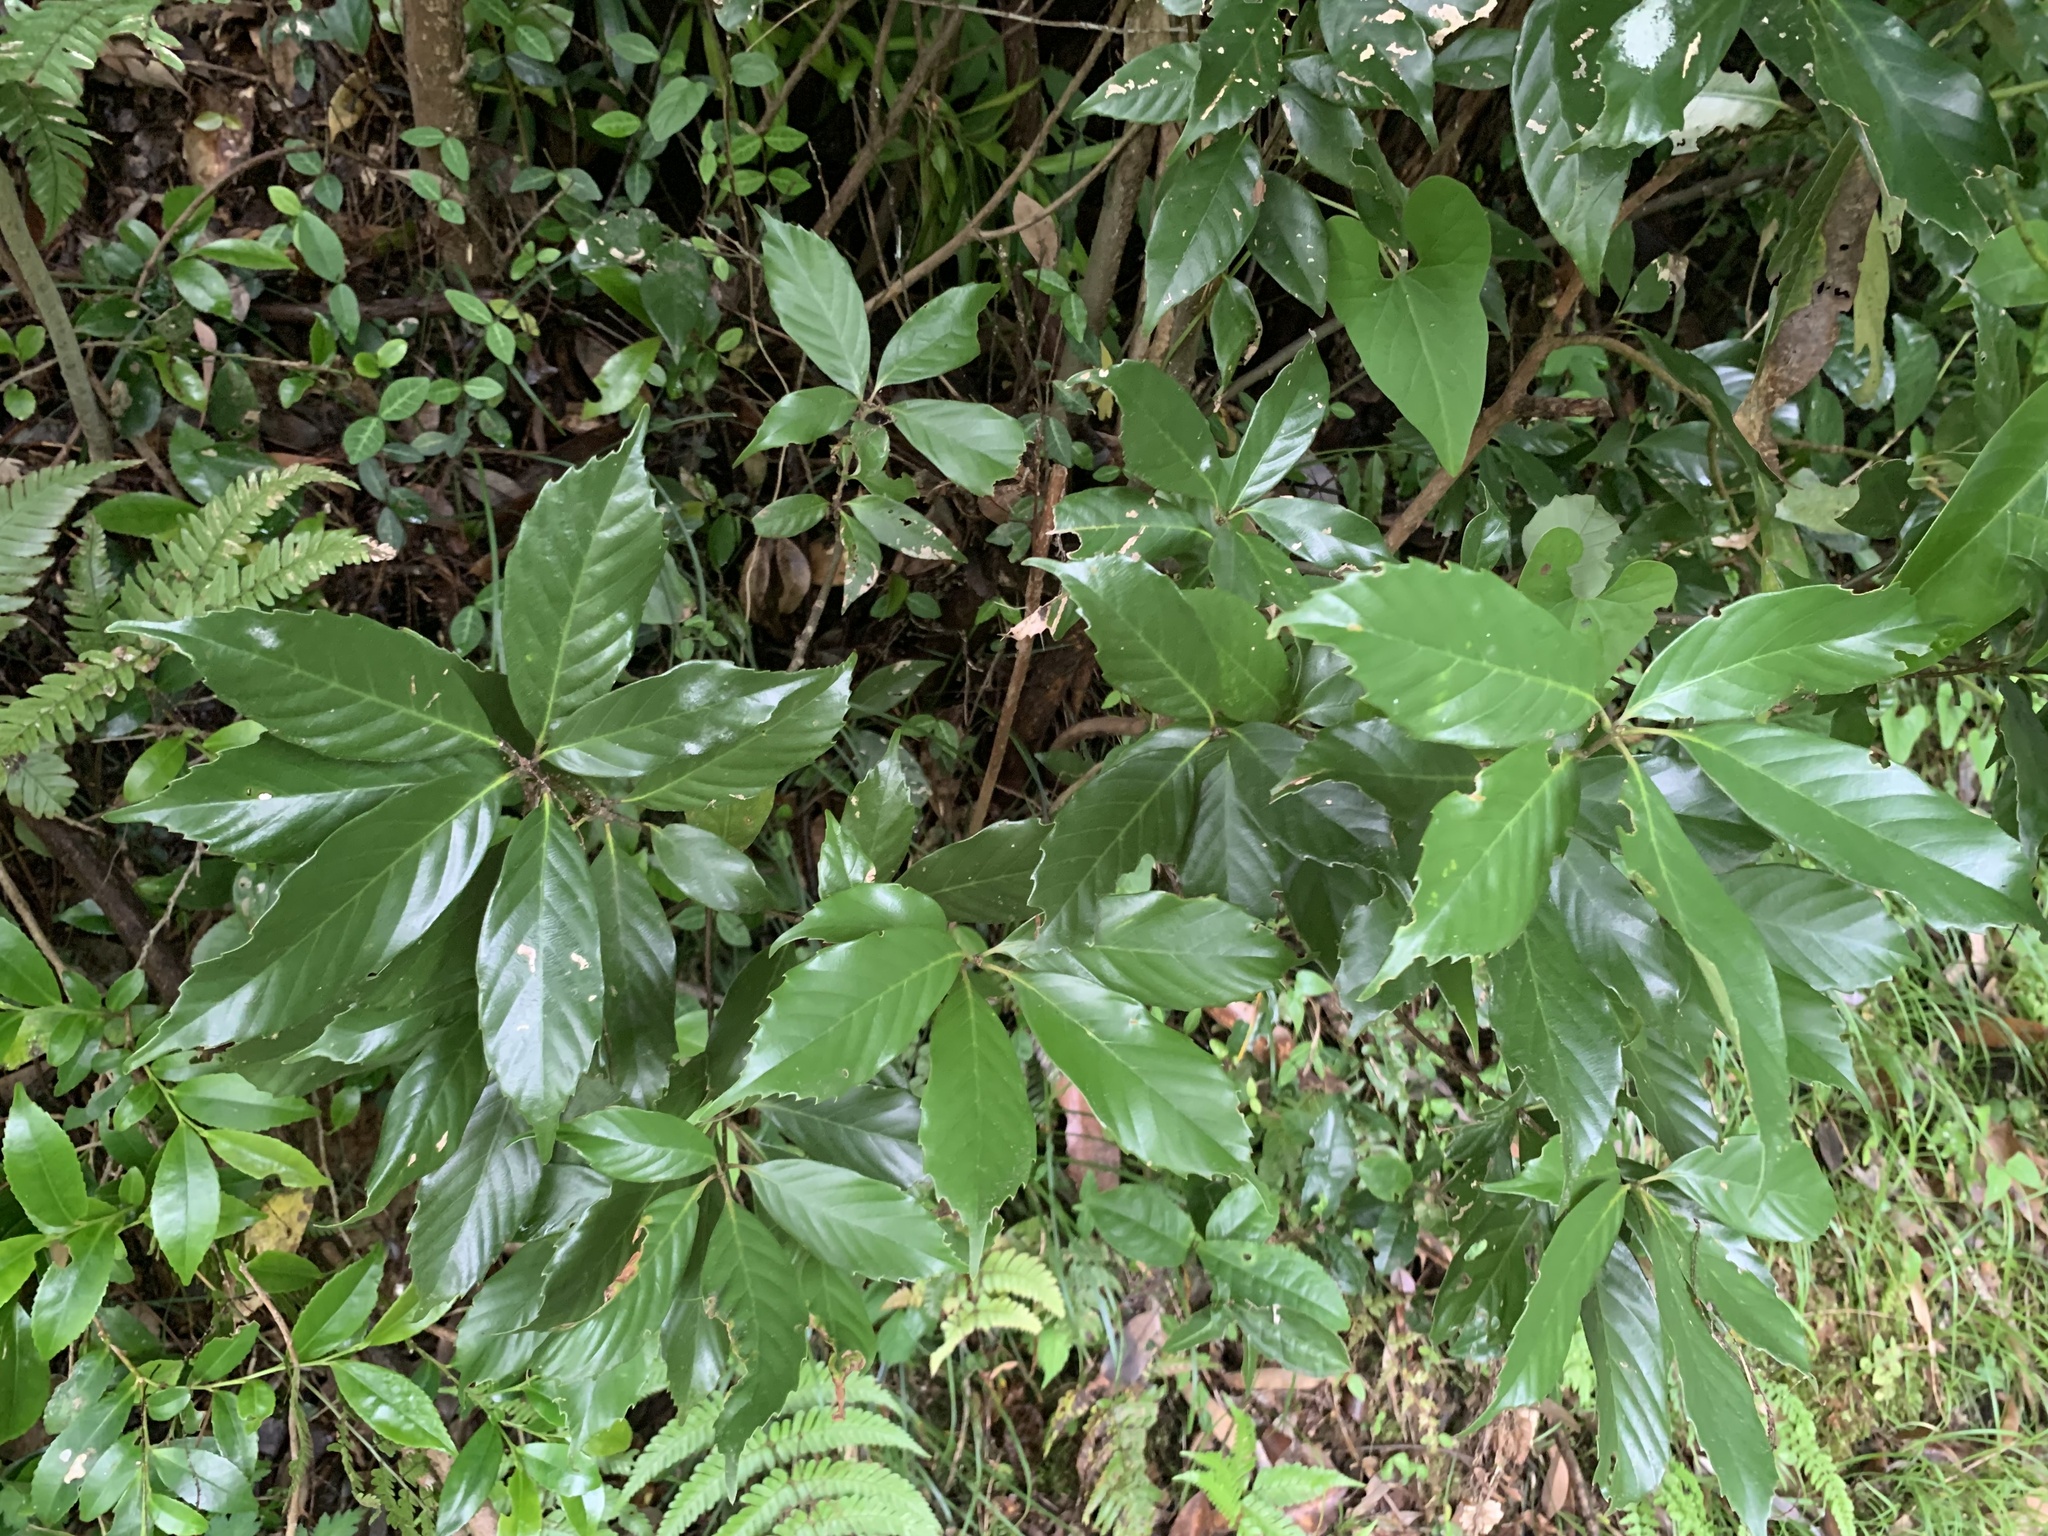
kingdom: Plantae
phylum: Tracheophyta
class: Magnoliopsida
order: Fagales
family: Fagaceae
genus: Quercus
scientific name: Quercus glauca
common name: Ring-cup oak
